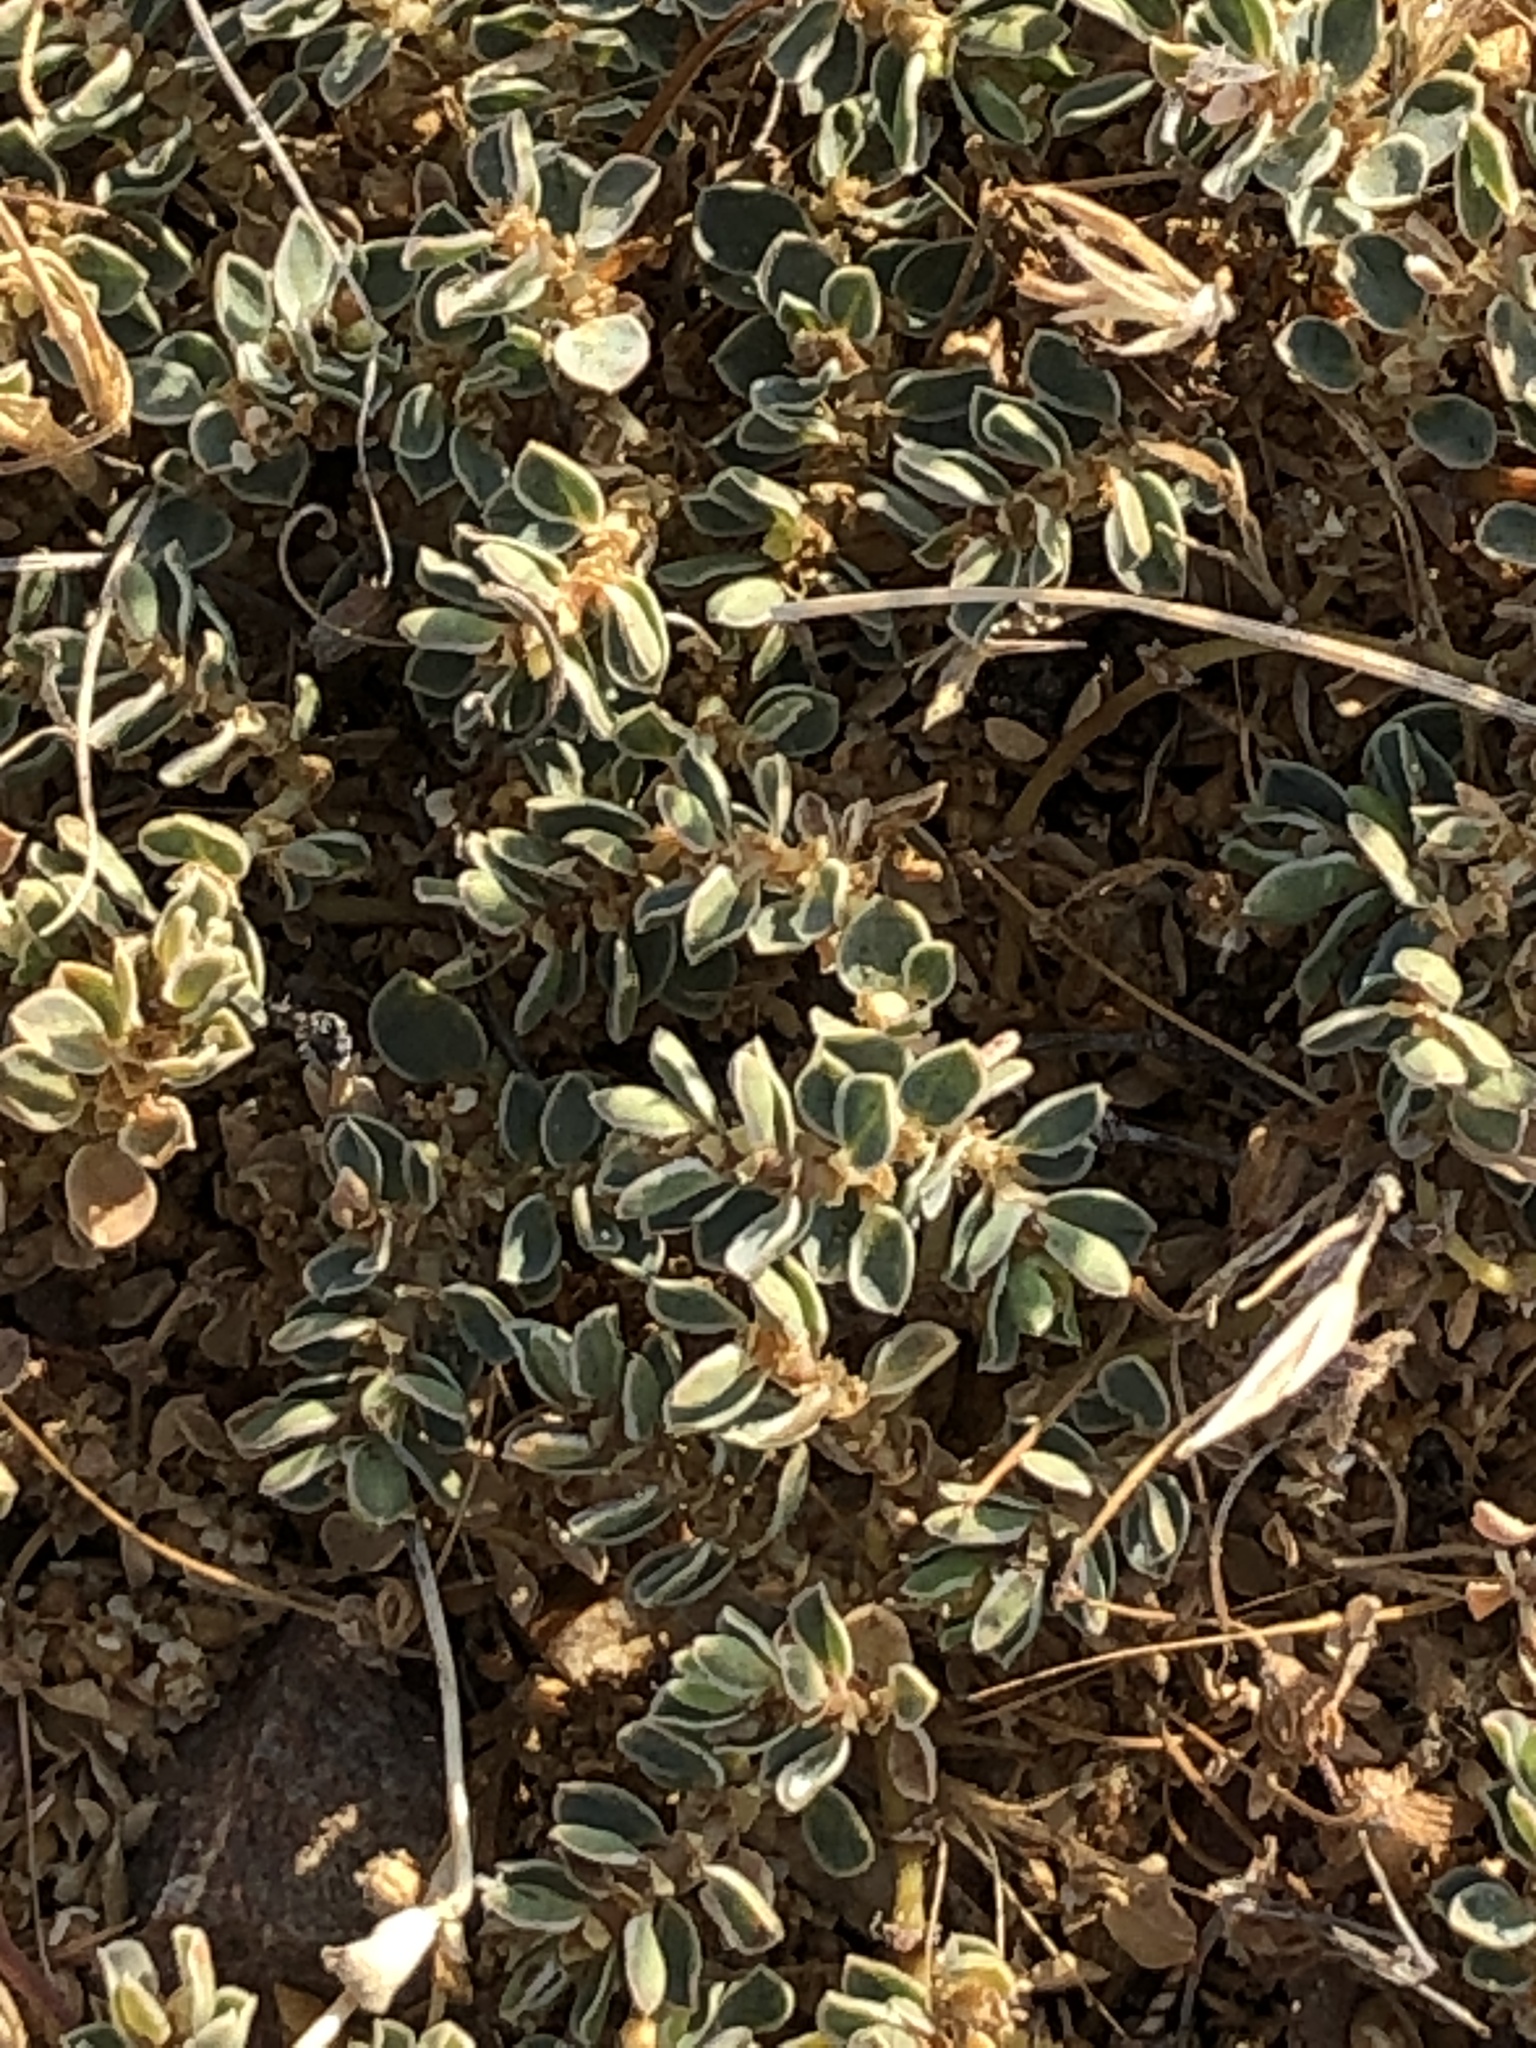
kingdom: Plantae
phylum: Tracheophyta
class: Magnoliopsida
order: Malpighiales
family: Euphorbiaceae
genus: Euphorbia
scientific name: Euphorbia albomarginata
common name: Whitemargin sandmat
